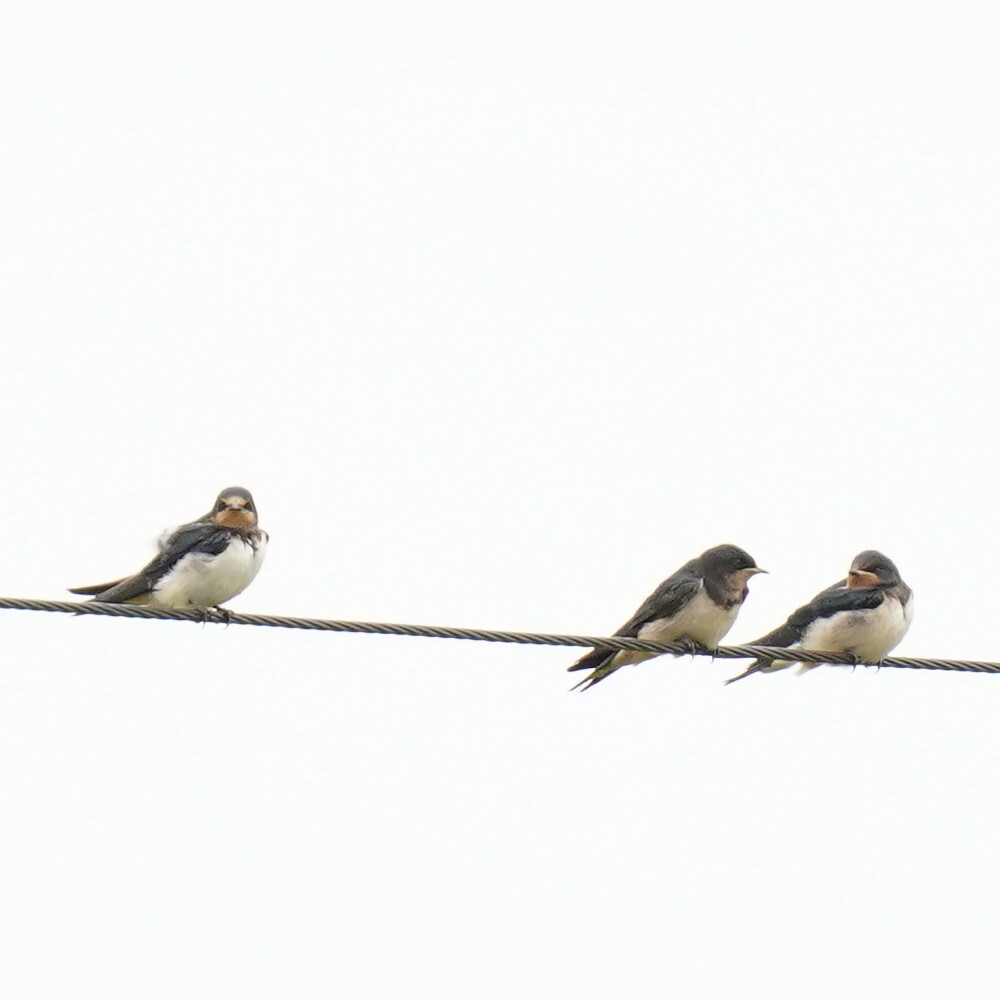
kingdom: Animalia
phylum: Chordata
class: Aves
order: Passeriformes
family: Hirundinidae
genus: Hirundo
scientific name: Hirundo rustica
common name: Barn swallow
